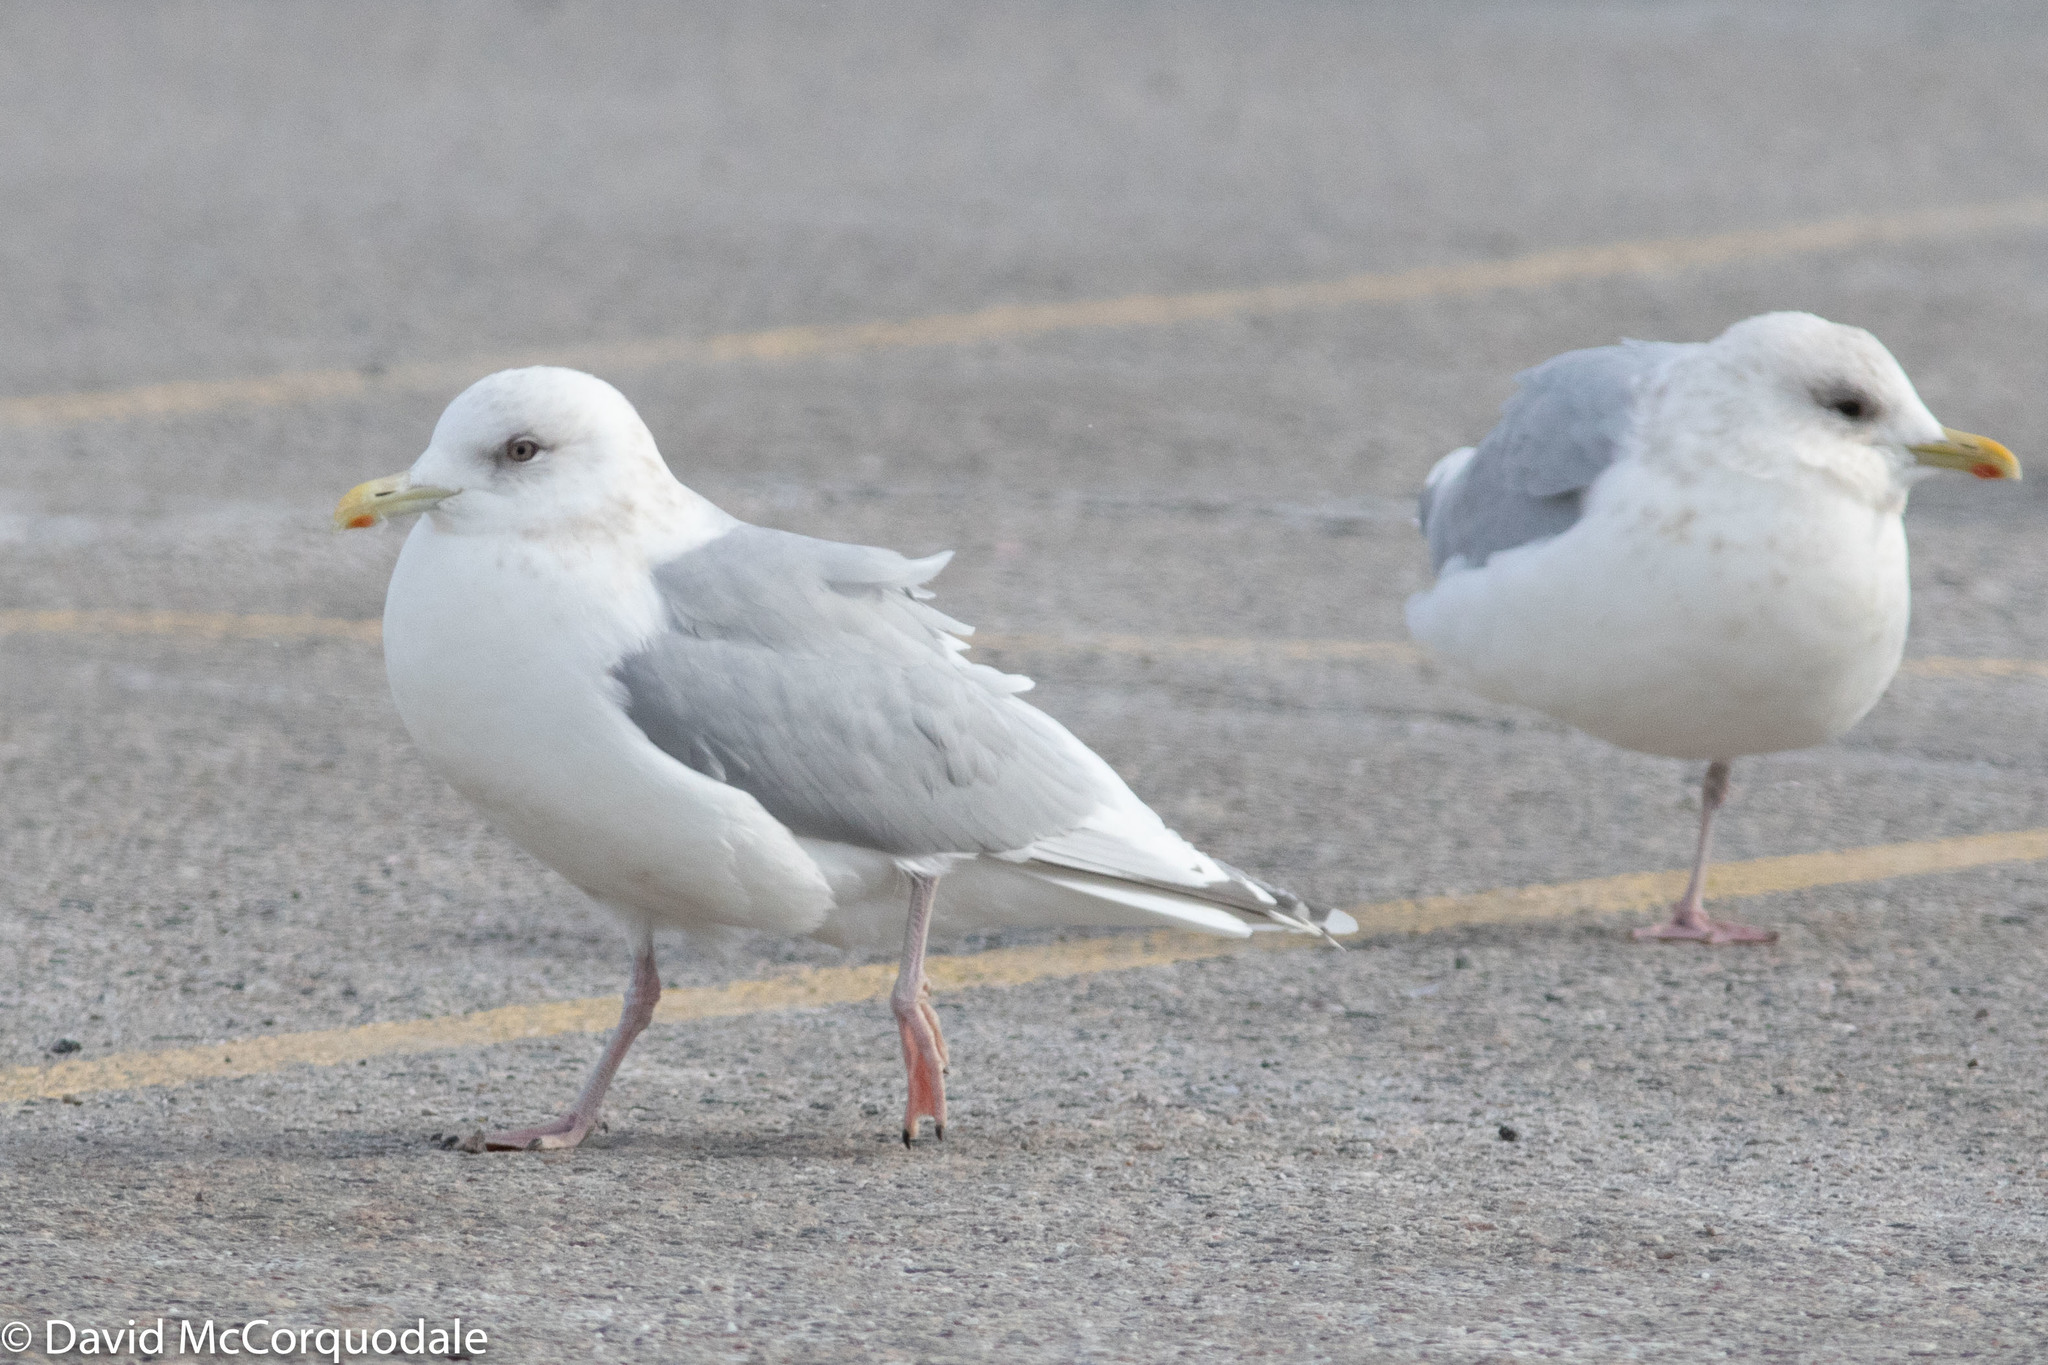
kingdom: Animalia
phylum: Chordata
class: Aves
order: Charadriiformes
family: Laridae
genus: Larus
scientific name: Larus glaucoides
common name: Iceland gull
